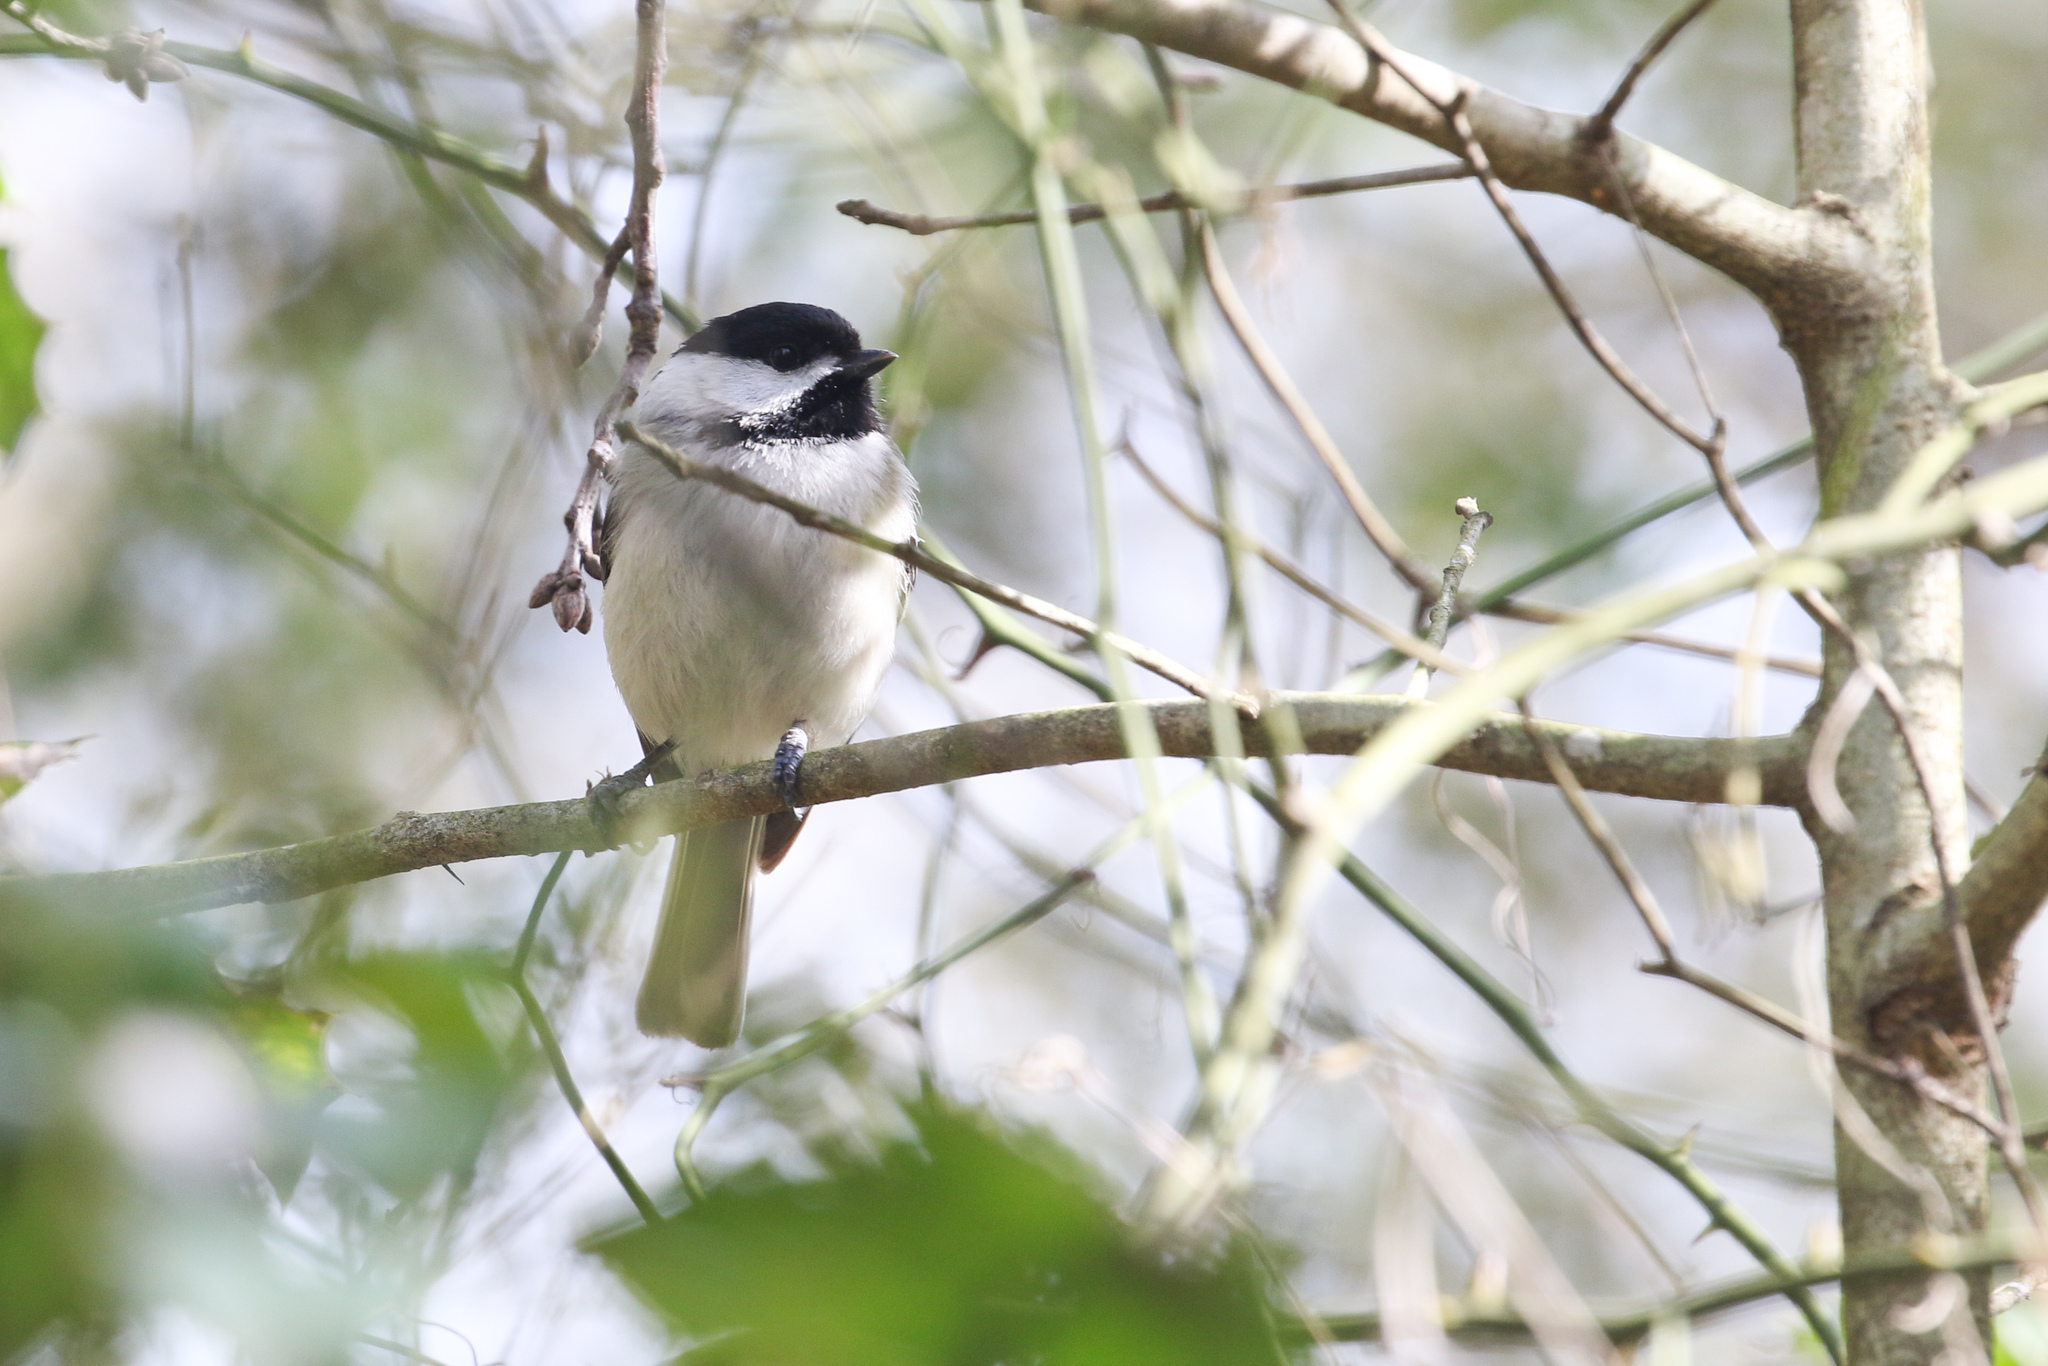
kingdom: Animalia
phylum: Chordata
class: Aves
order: Passeriformes
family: Paridae
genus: Poecile
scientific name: Poecile carolinensis
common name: Carolina chickadee
